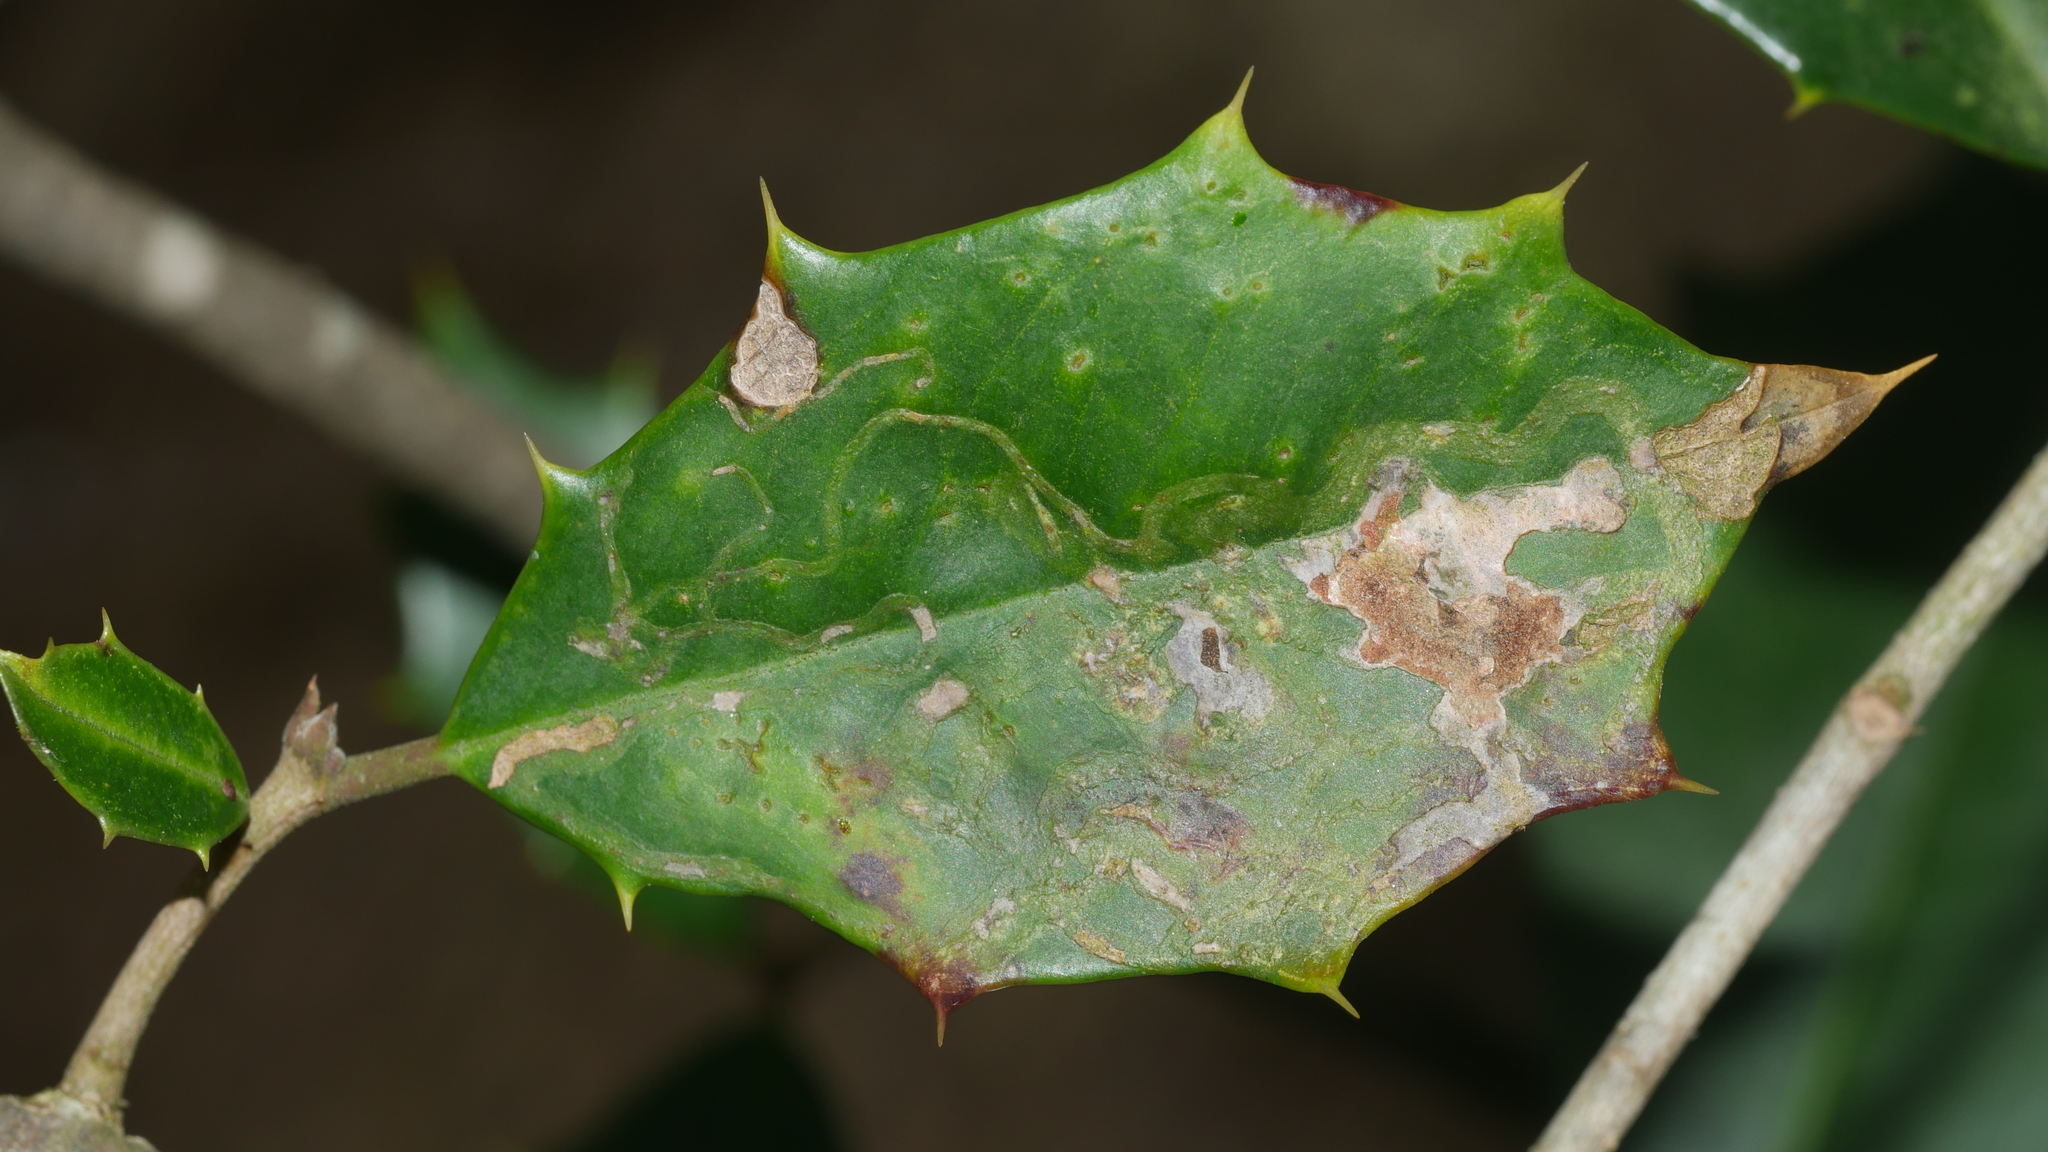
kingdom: Animalia
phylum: Arthropoda
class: Insecta
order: Diptera
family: Agromyzidae
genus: Phytomyza
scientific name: Phytomyza opacae
